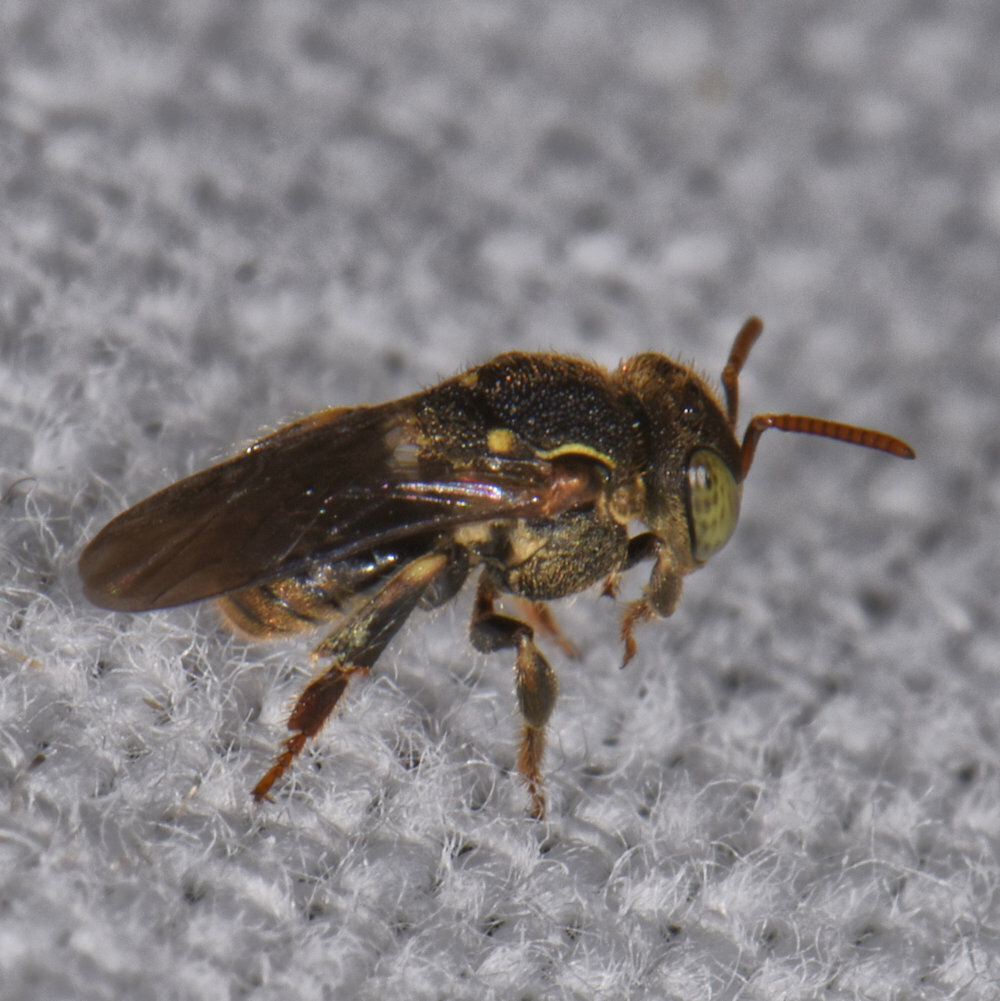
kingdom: Animalia
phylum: Arthropoda
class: Insecta
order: Hymenoptera
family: Apidae
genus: Nannotrigona
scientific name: Nannotrigona perilampoides
